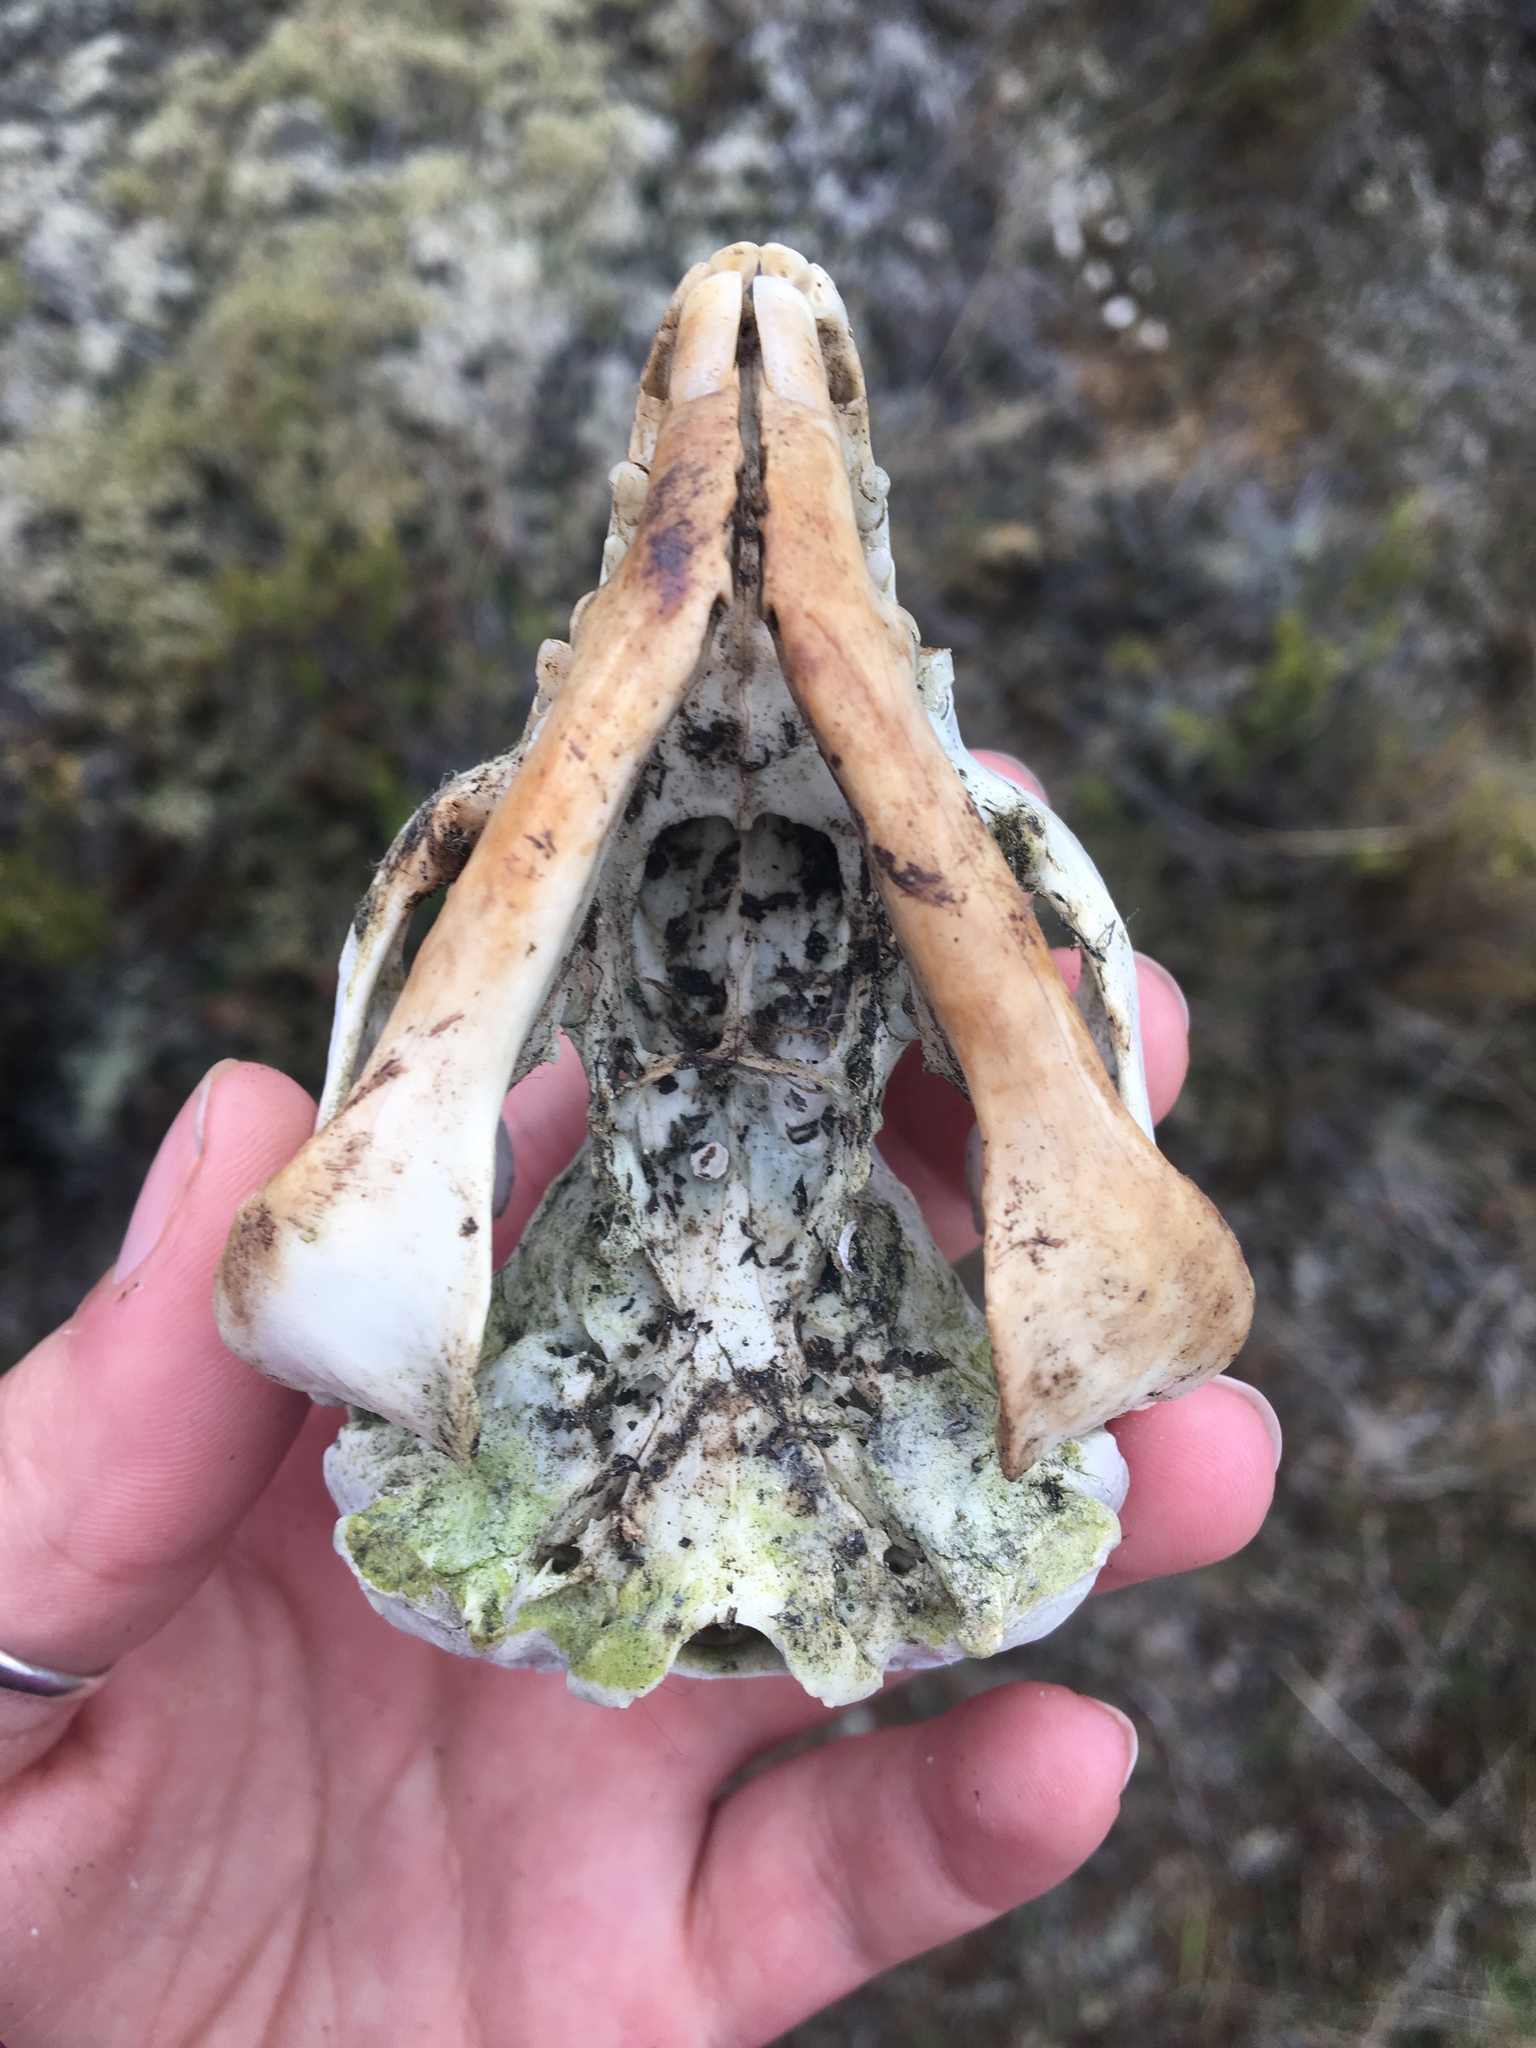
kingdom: Animalia
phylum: Chordata
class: Mammalia
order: Diprotodontia
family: Phalangeridae
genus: Trichosurus
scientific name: Trichosurus vulpecula
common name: Common brushtail
